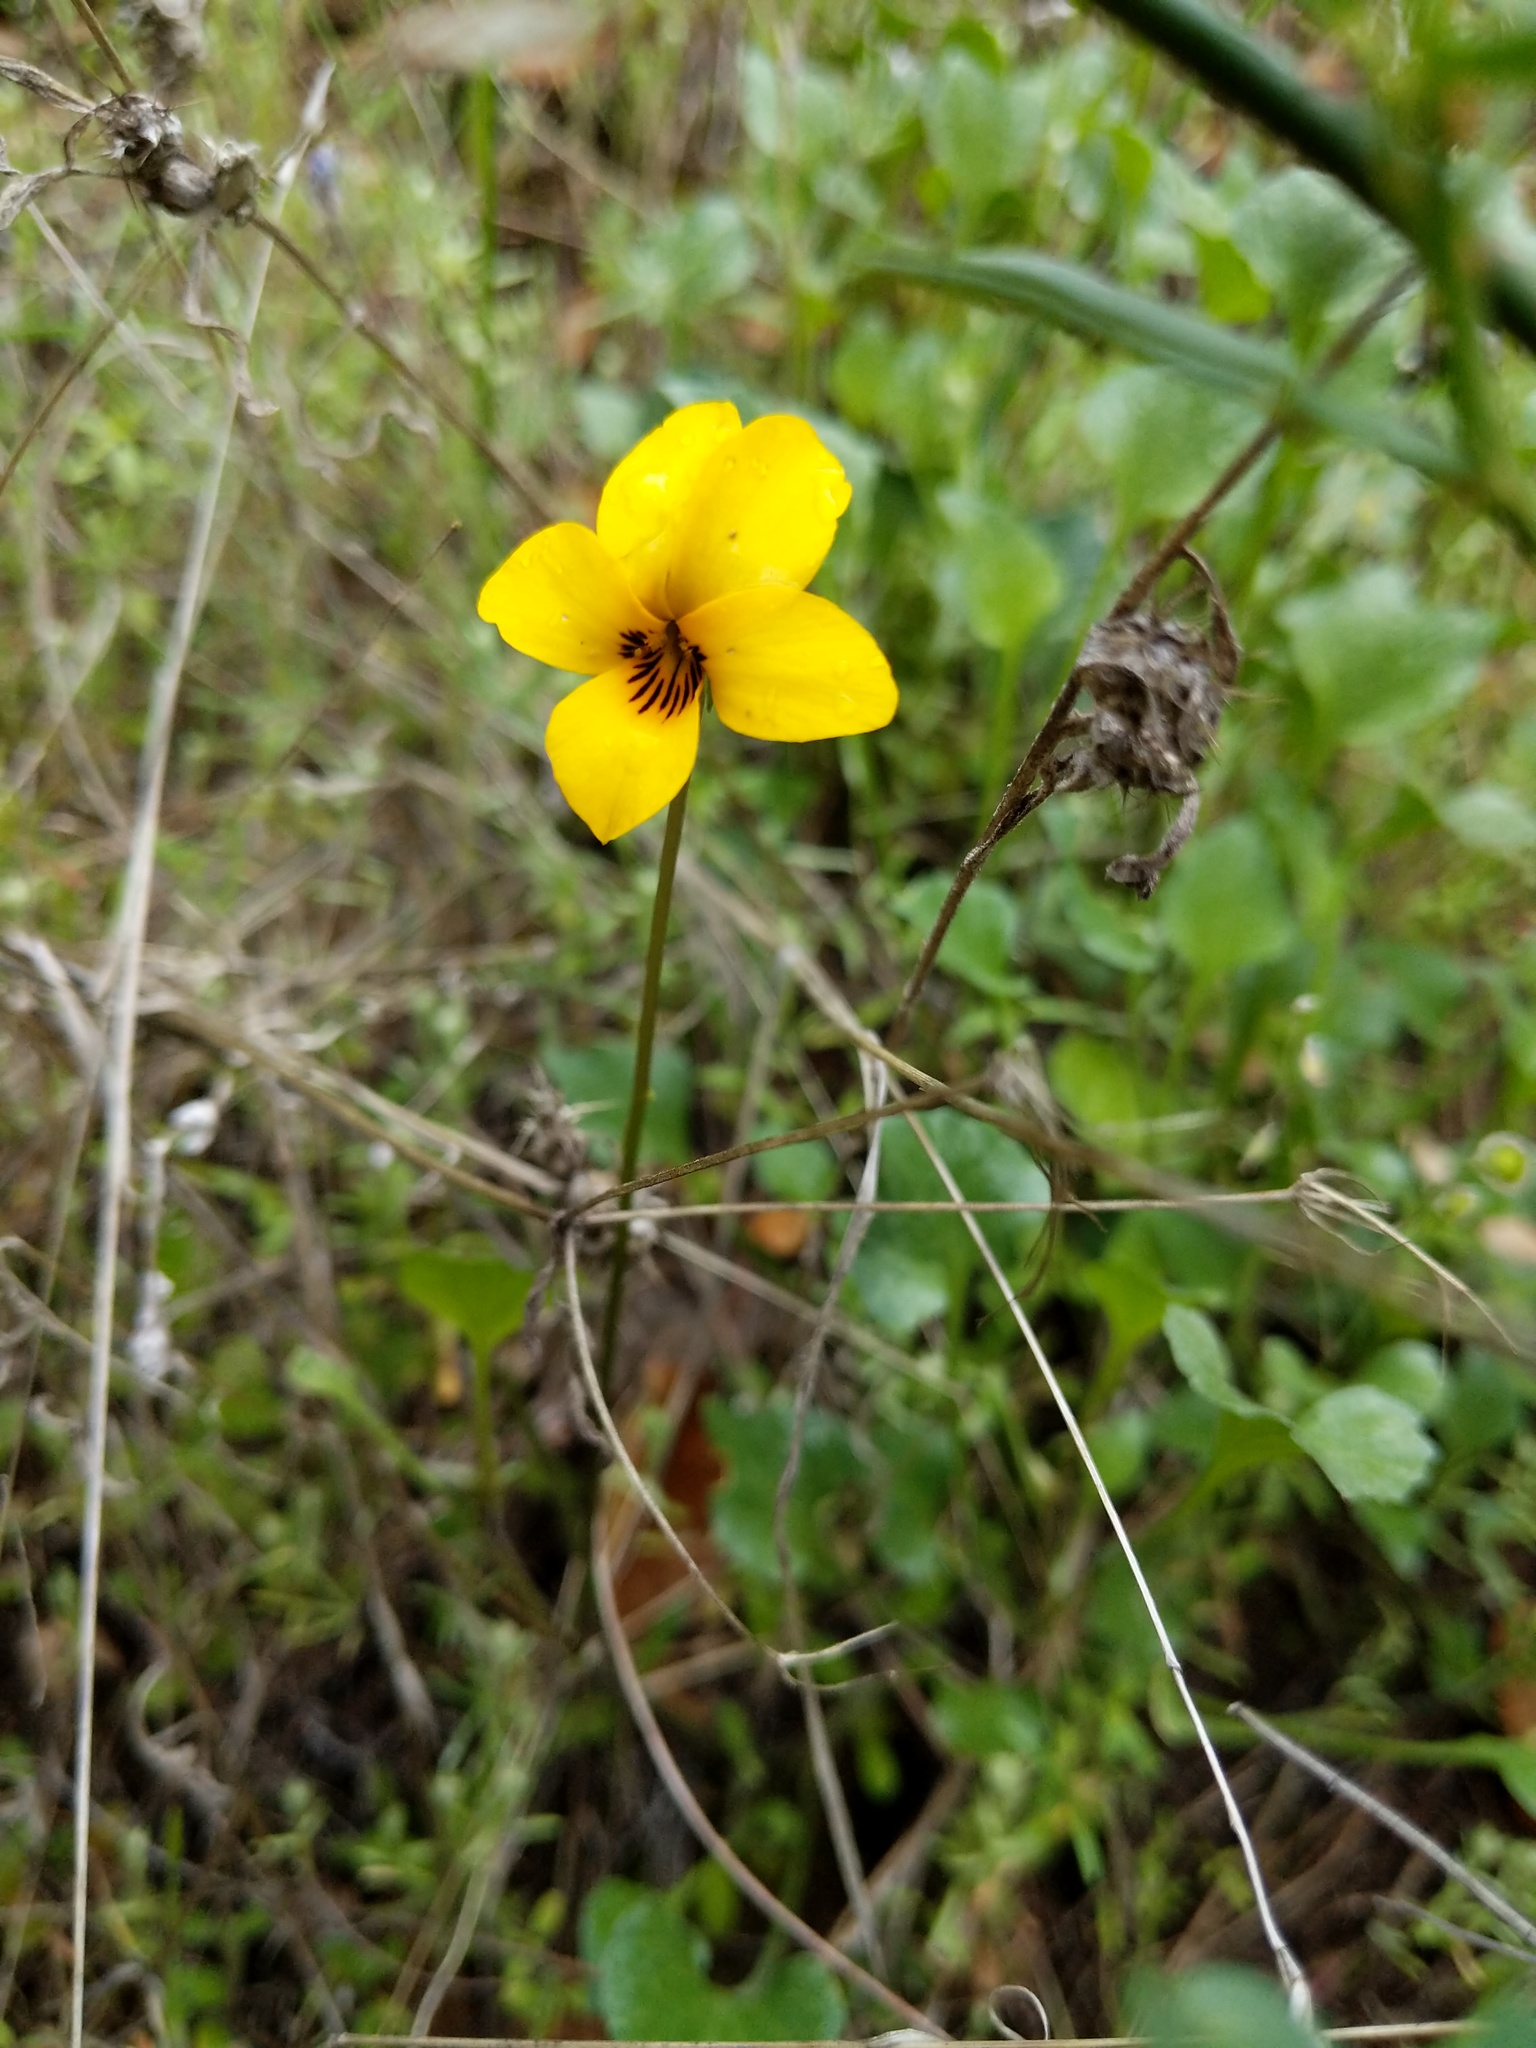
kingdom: Plantae
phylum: Tracheophyta
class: Magnoliopsida
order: Malpighiales
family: Violaceae
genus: Viola
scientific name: Viola pedunculata
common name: California golden violet
